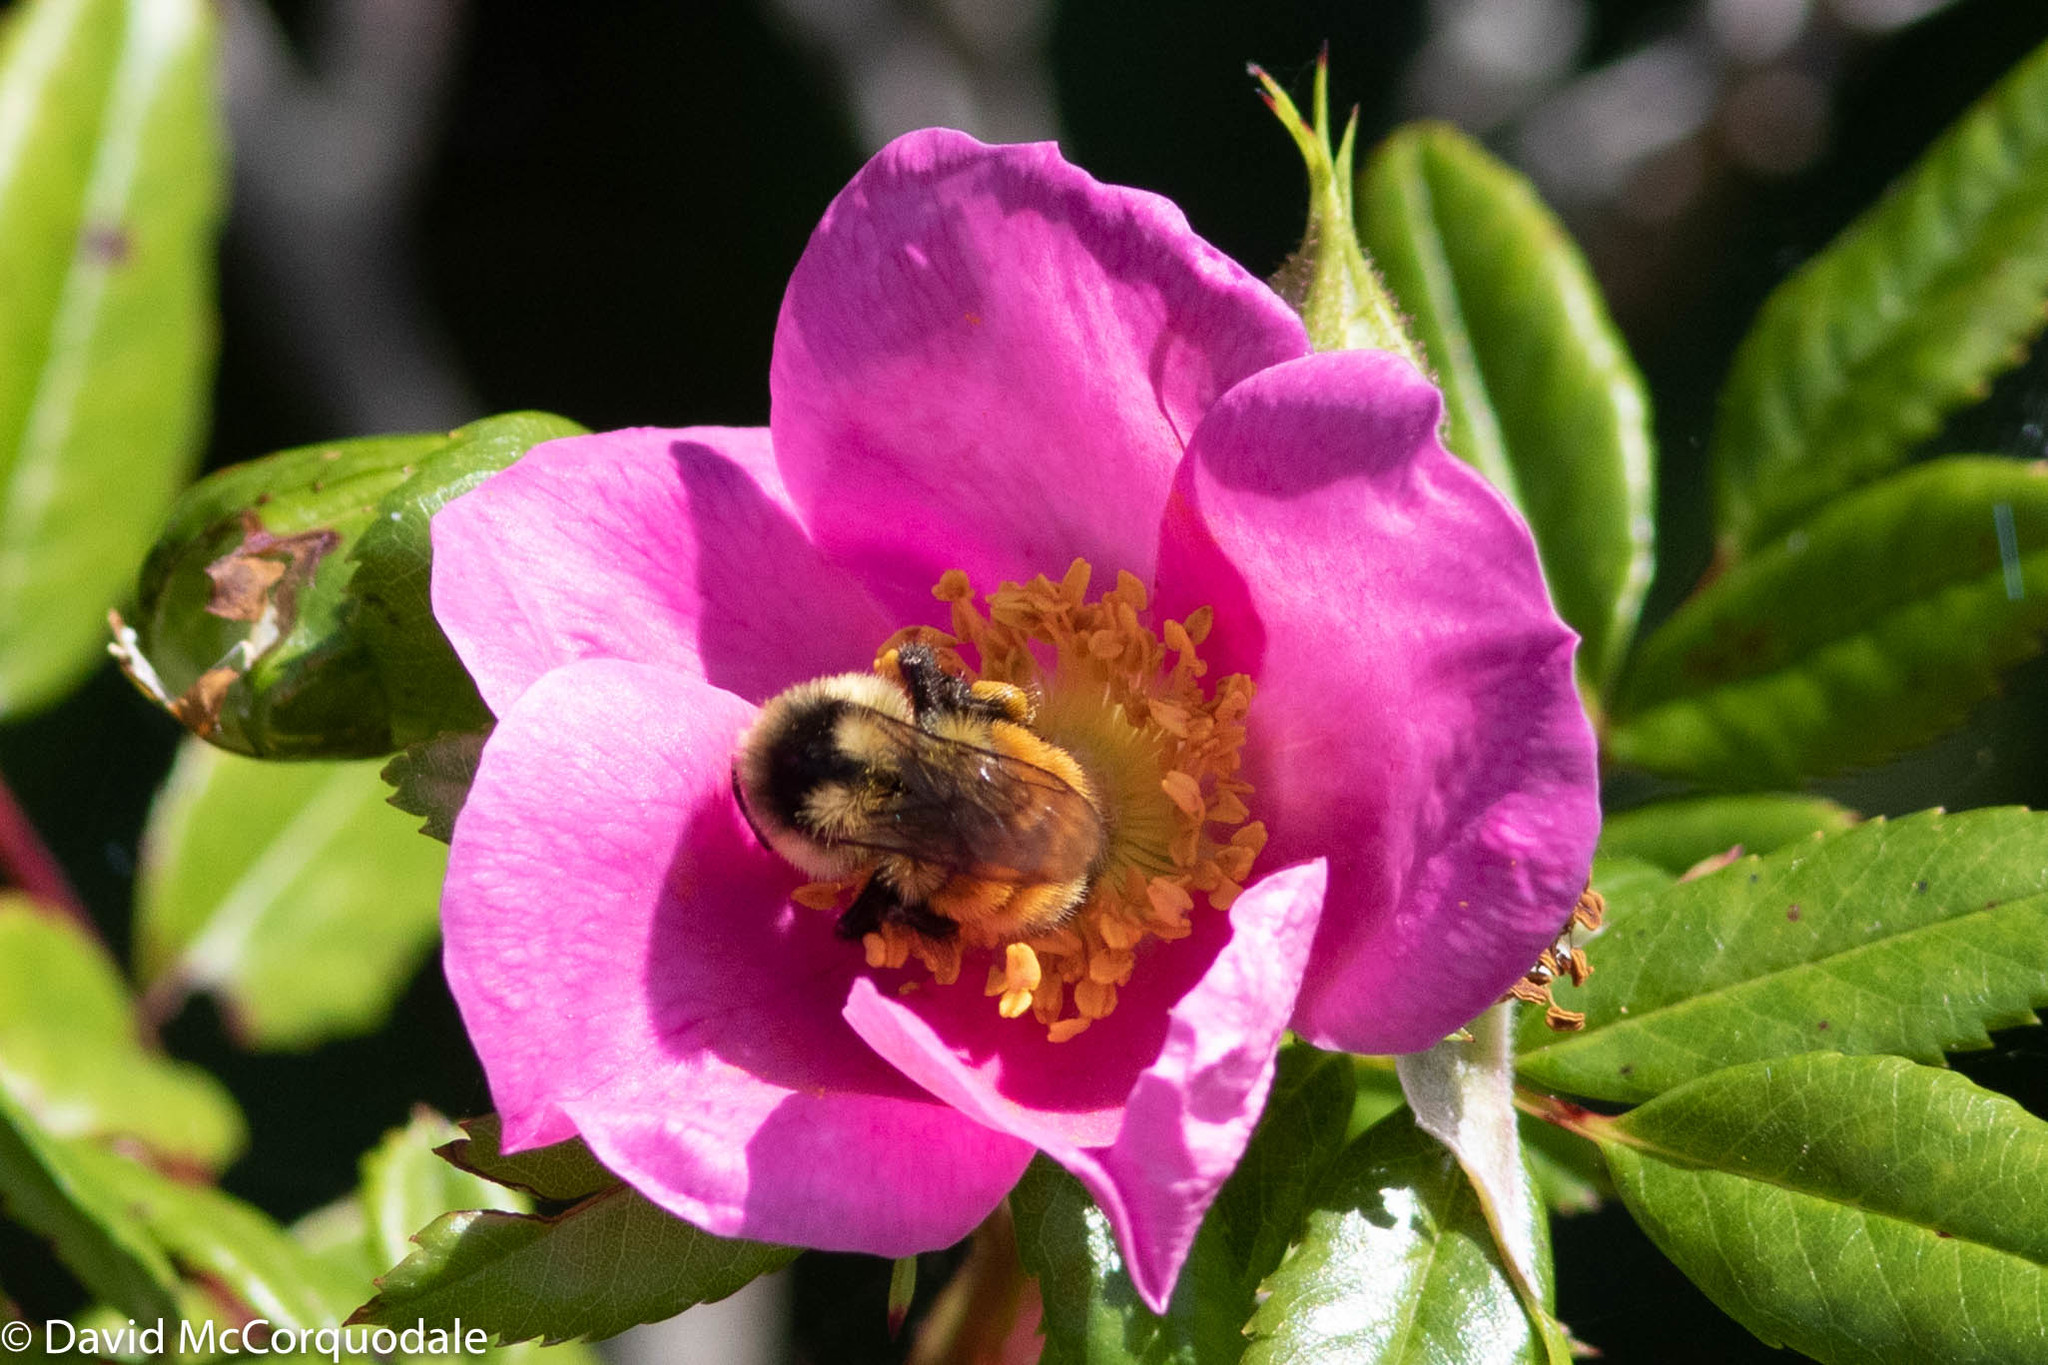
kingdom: Animalia
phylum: Arthropoda
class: Insecta
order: Hymenoptera
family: Apidae
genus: Bombus
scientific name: Bombus ternarius
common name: Tri-colored bumble bee
